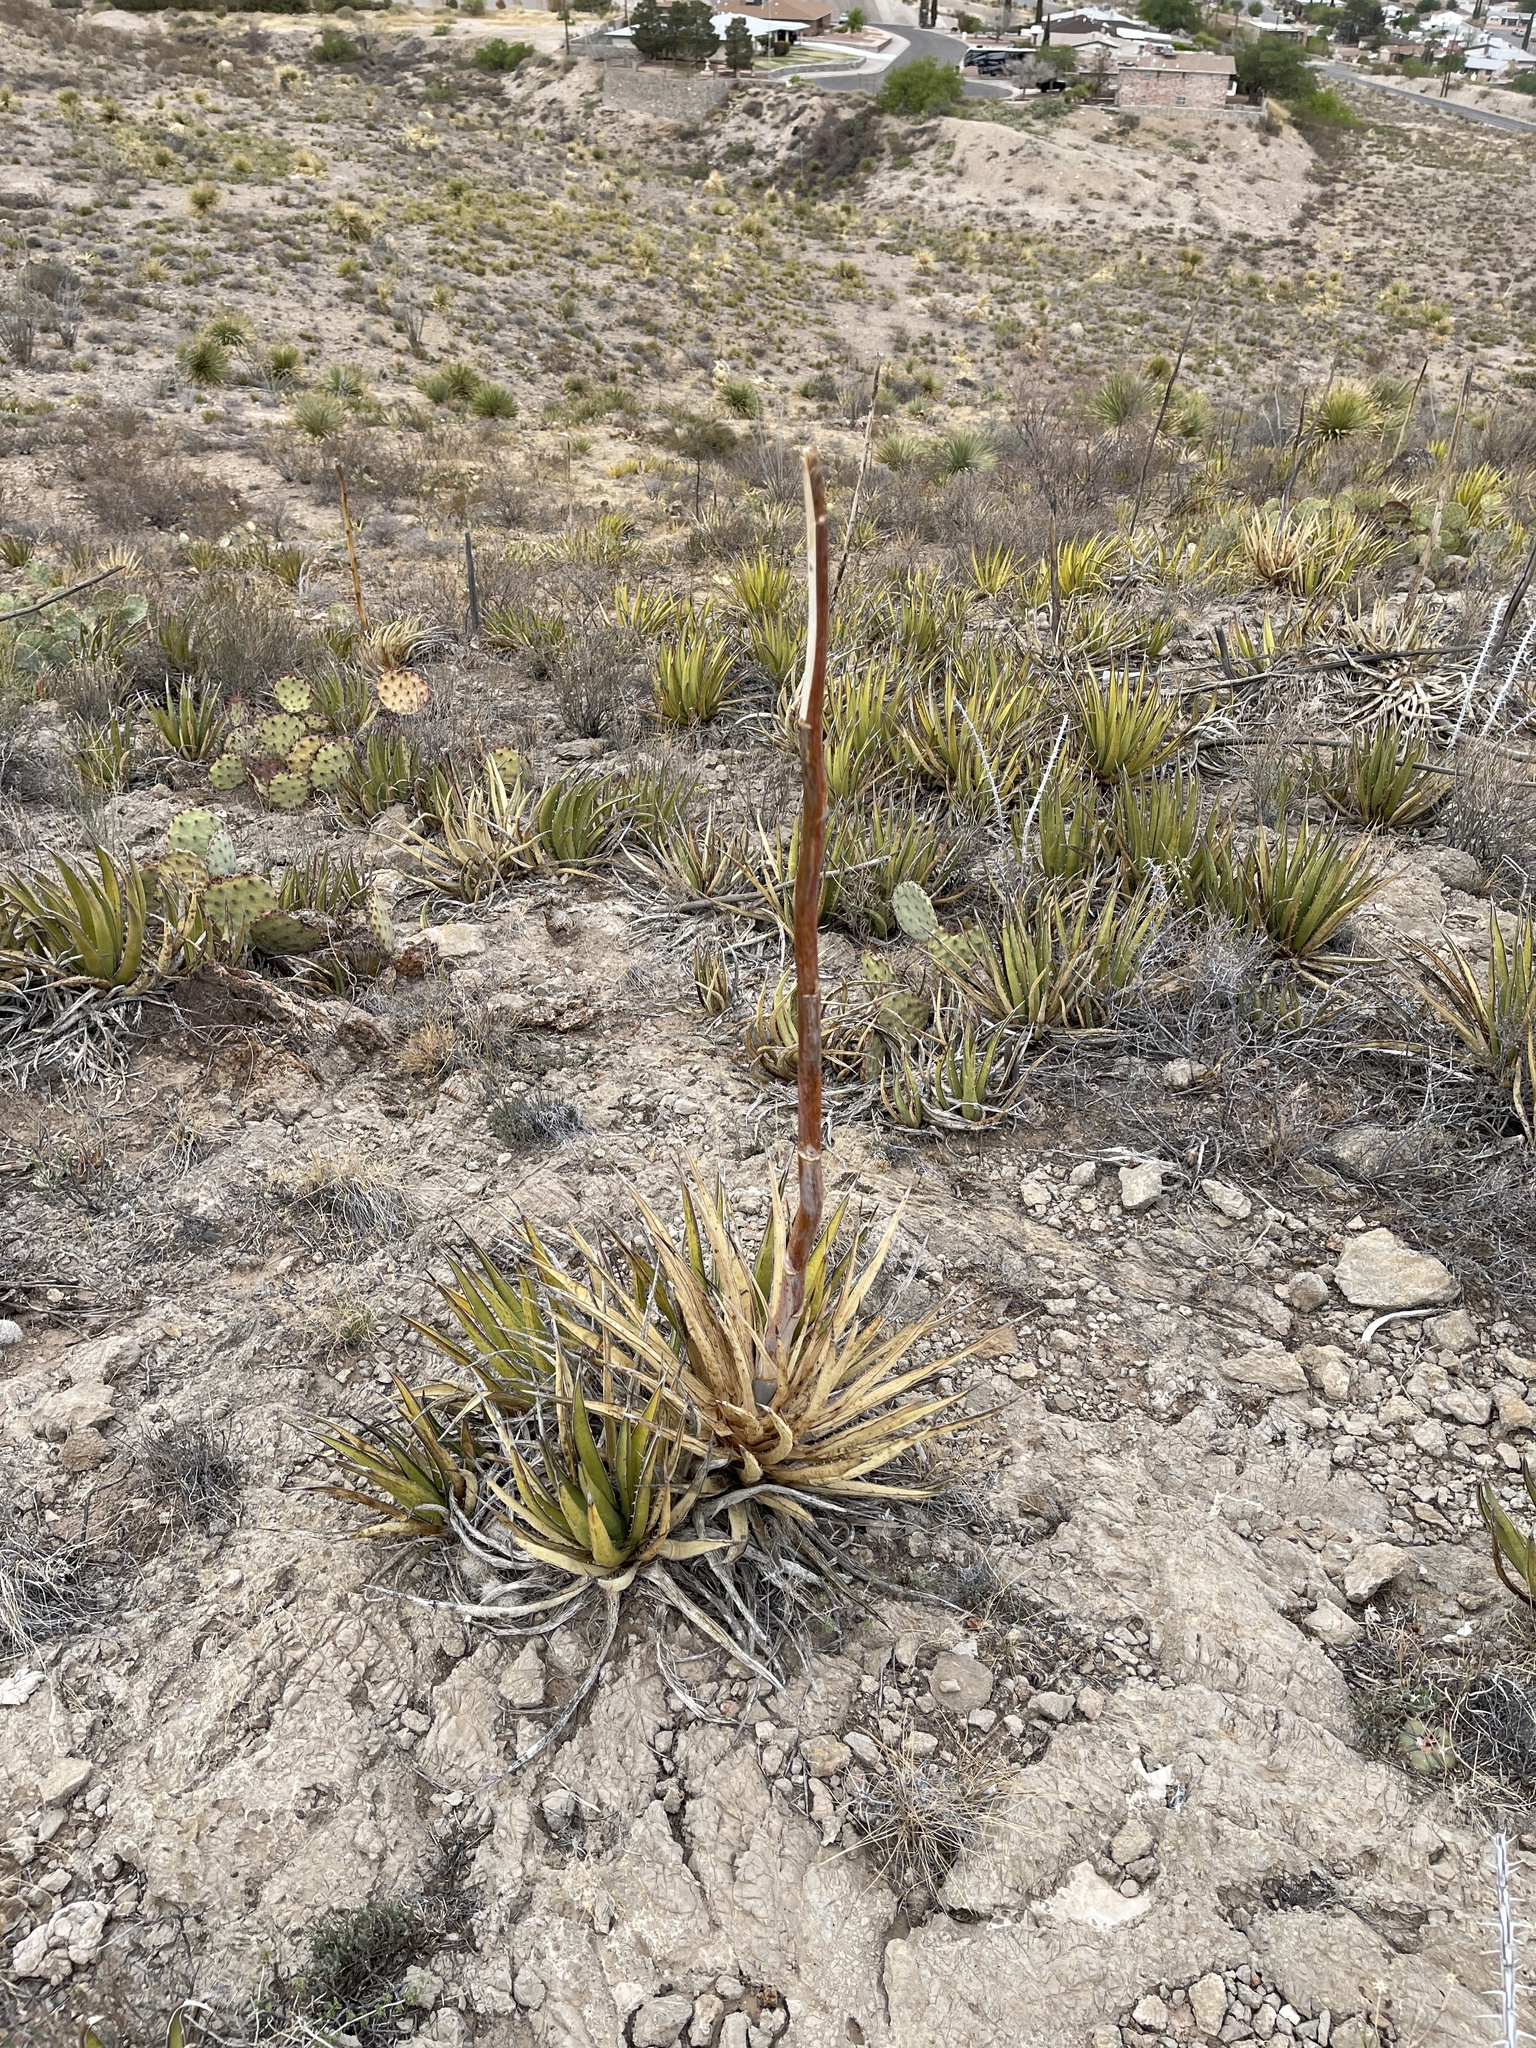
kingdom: Plantae
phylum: Tracheophyta
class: Liliopsida
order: Asparagales
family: Asparagaceae
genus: Agave
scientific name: Agave lechuguilla
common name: Lecheguilla agave
